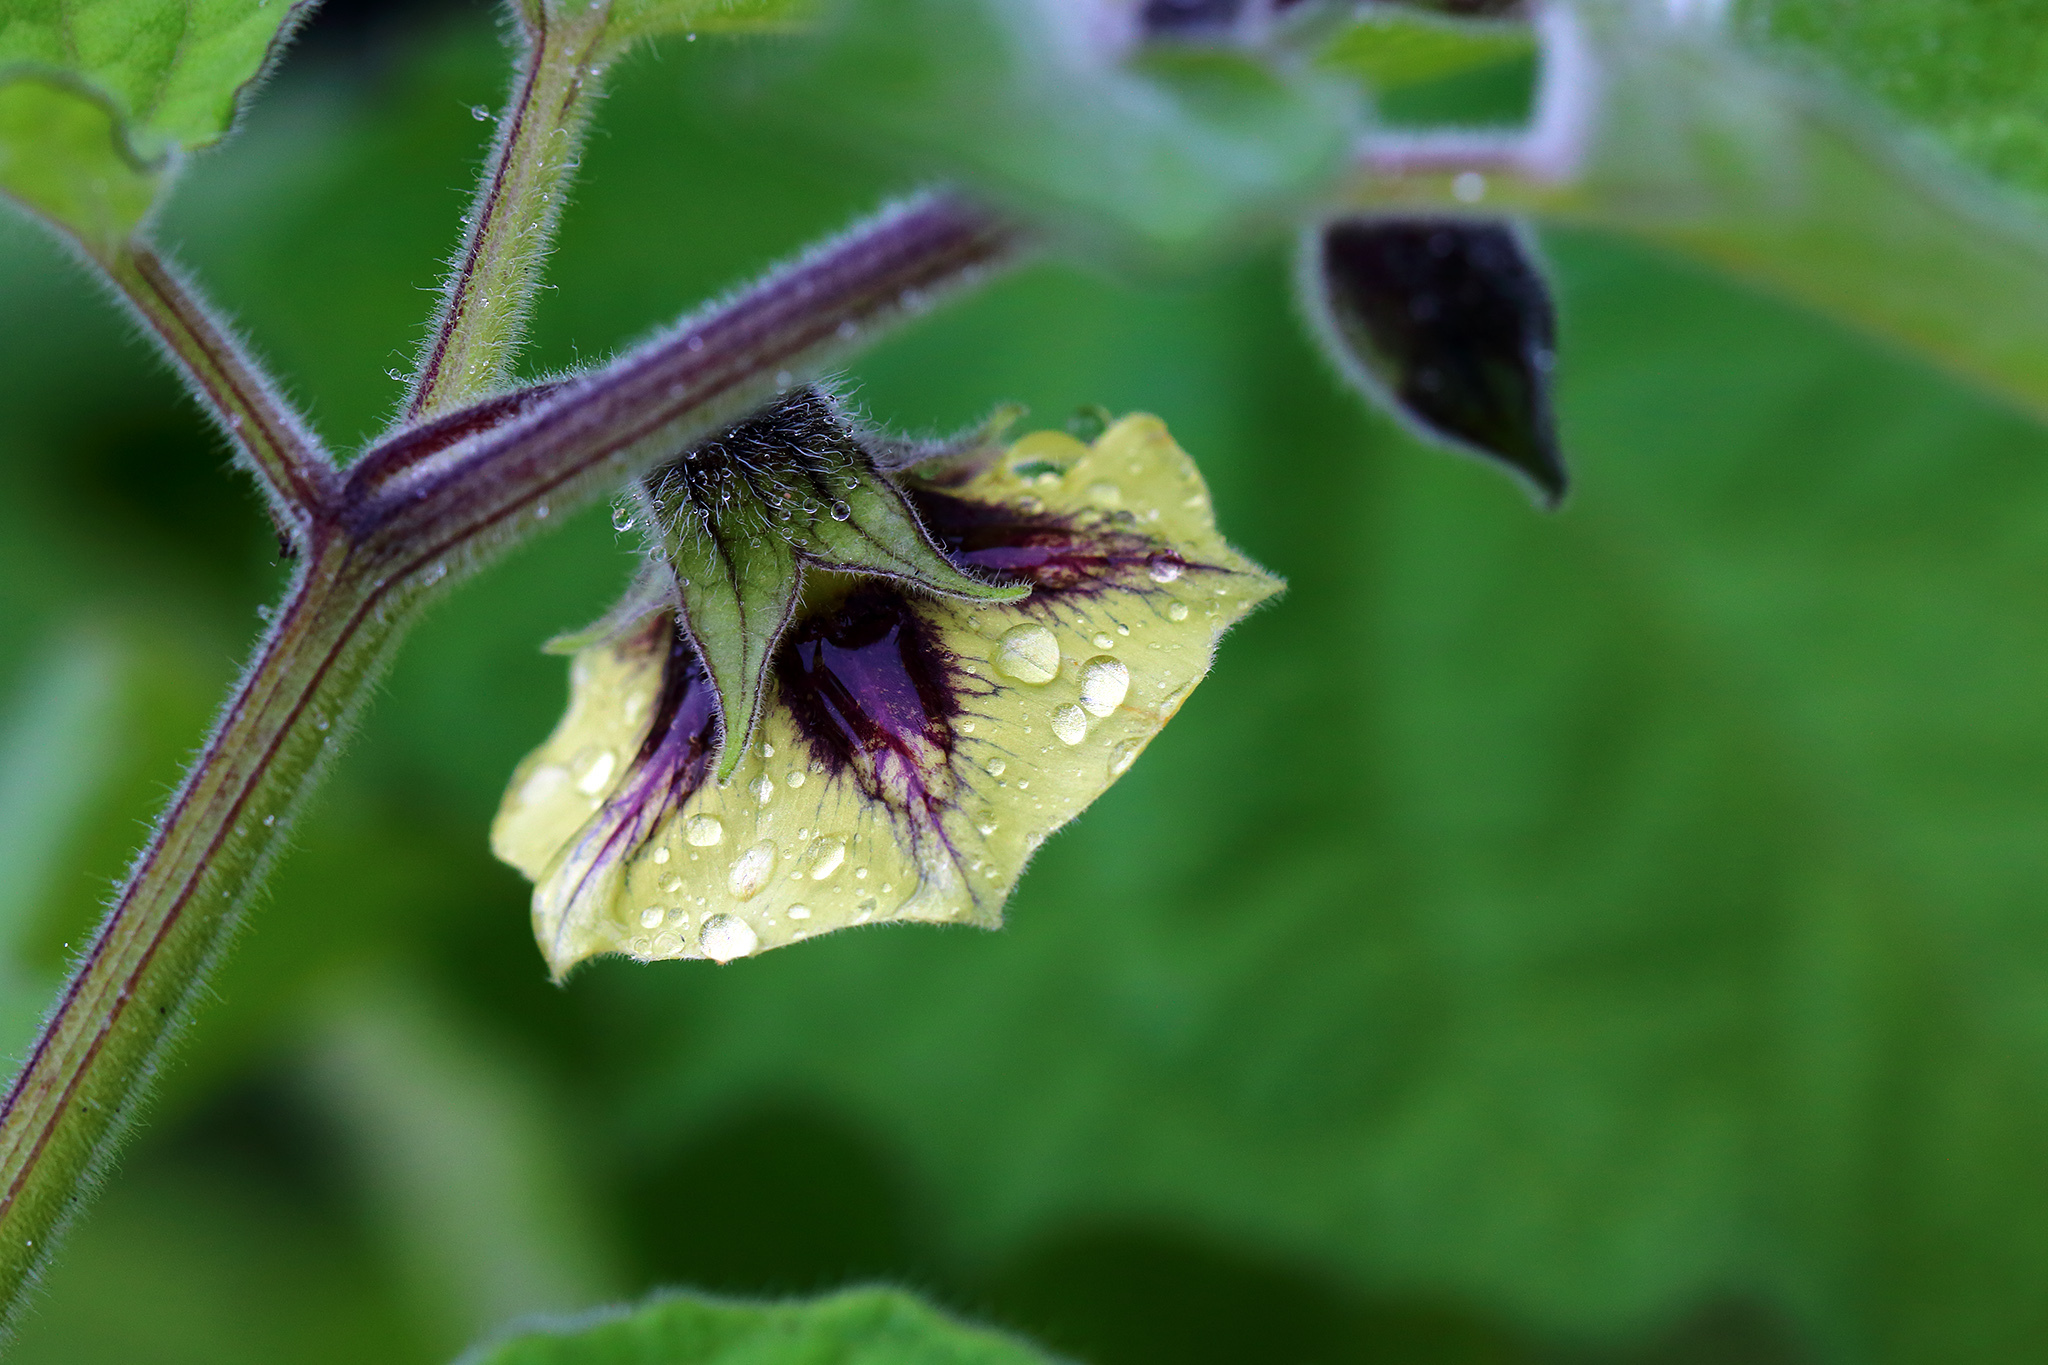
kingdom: Plantae
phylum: Tracheophyta
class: Magnoliopsida
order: Solanales
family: Solanaceae
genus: Physalis
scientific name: Physalis peruviana
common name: Cape-gooseberry
